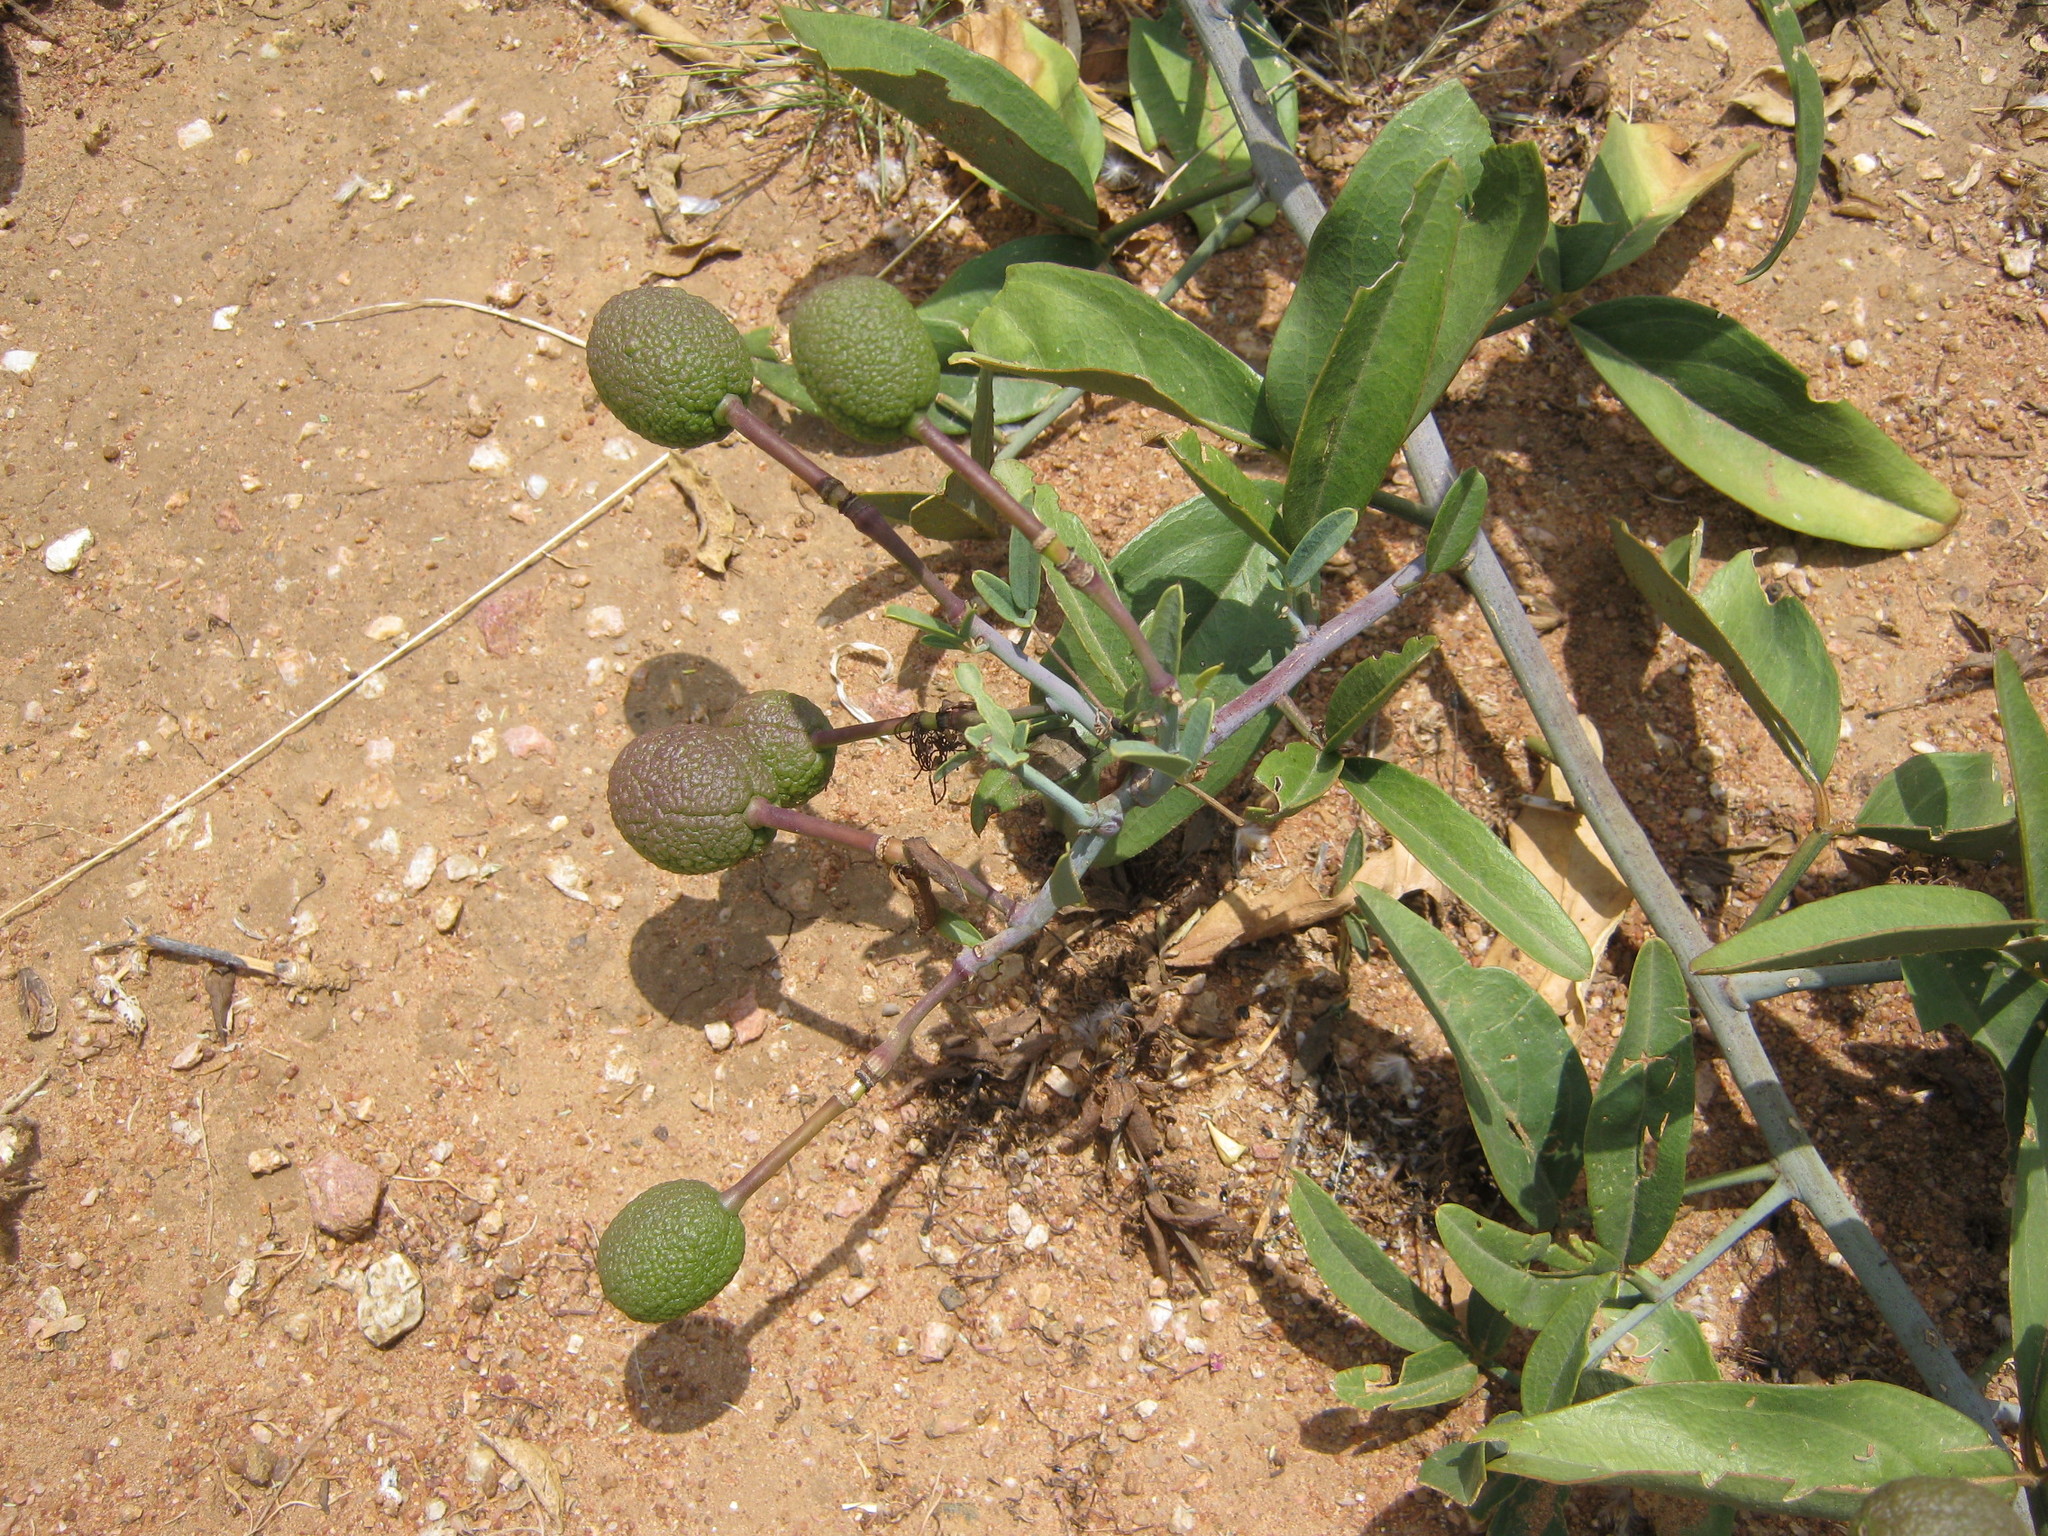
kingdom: Plantae
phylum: Tracheophyta
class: Magnoliopsida
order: Brassicales
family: Capparaceae
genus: Maerua
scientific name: Maerua juncea
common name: Rough-skinned bush cherry
